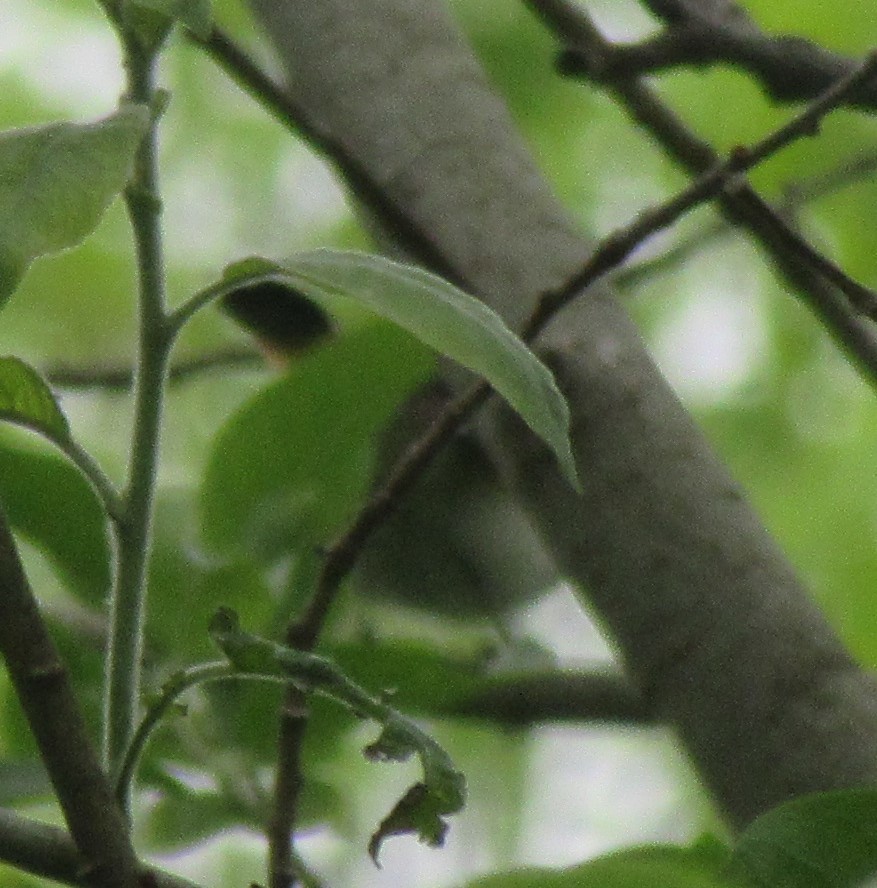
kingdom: Animalia
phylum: Chordata
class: Aves
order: Passeriformes
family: Parulidae
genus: Setophaga
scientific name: Setophaga ruticilla
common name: American redstart
